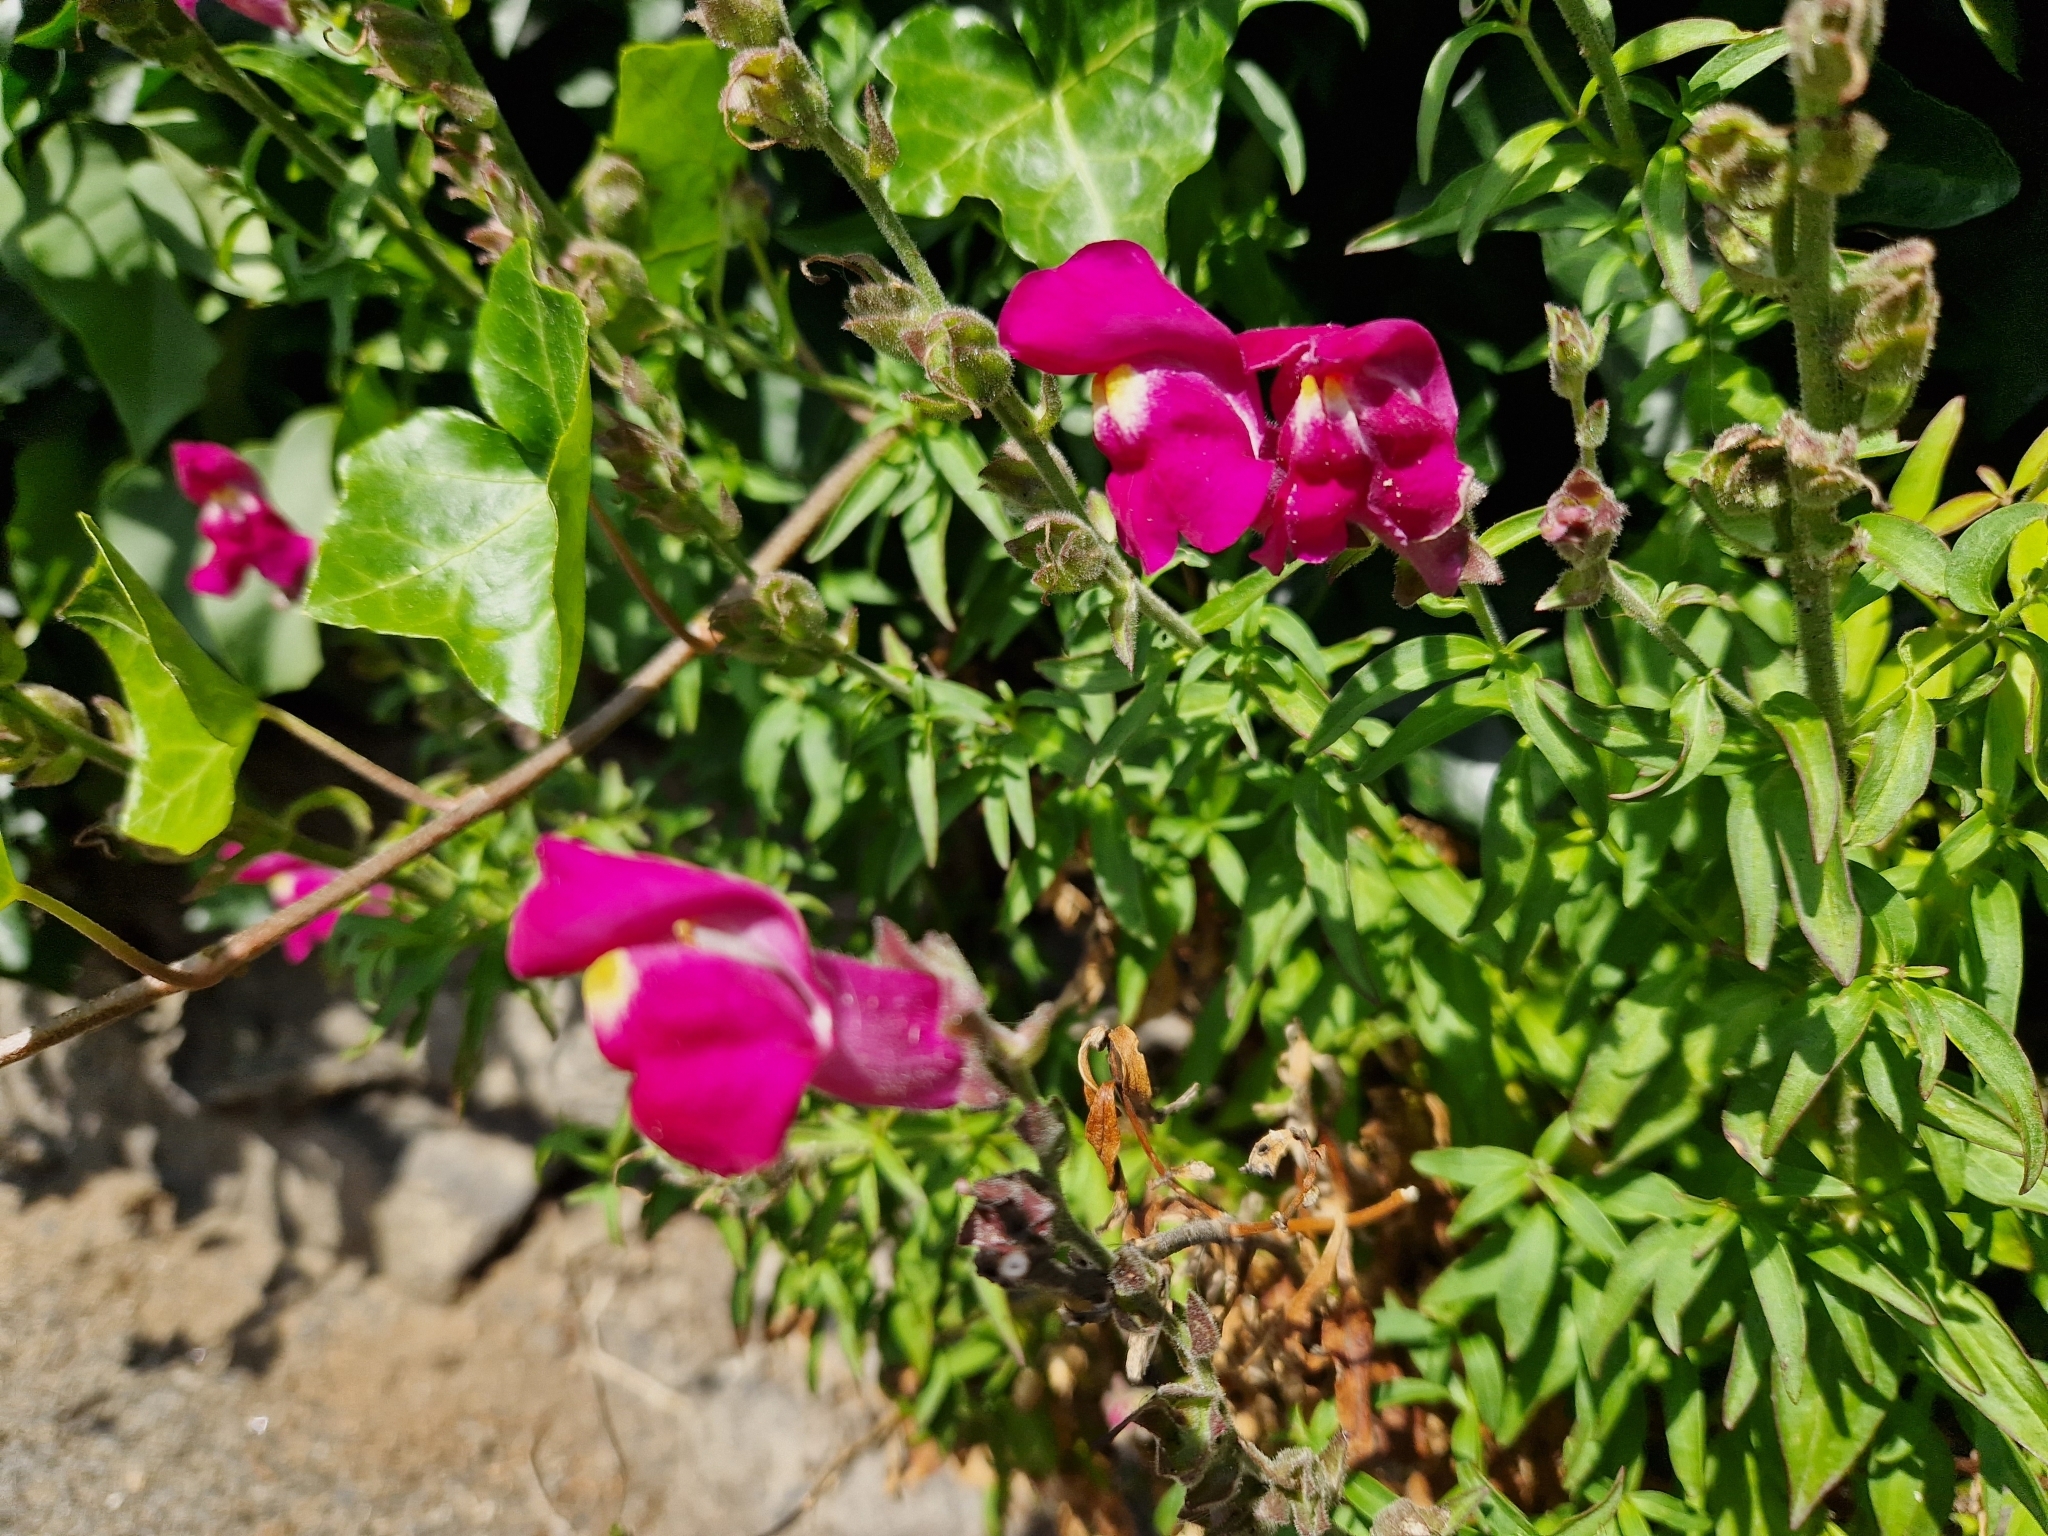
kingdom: Plantae
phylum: Tracheophyta
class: Magnoliopsida
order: Lamiales
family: Plantaginaceae
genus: Antirrhinum
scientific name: Antirrhinum majus
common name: Snapdragon
